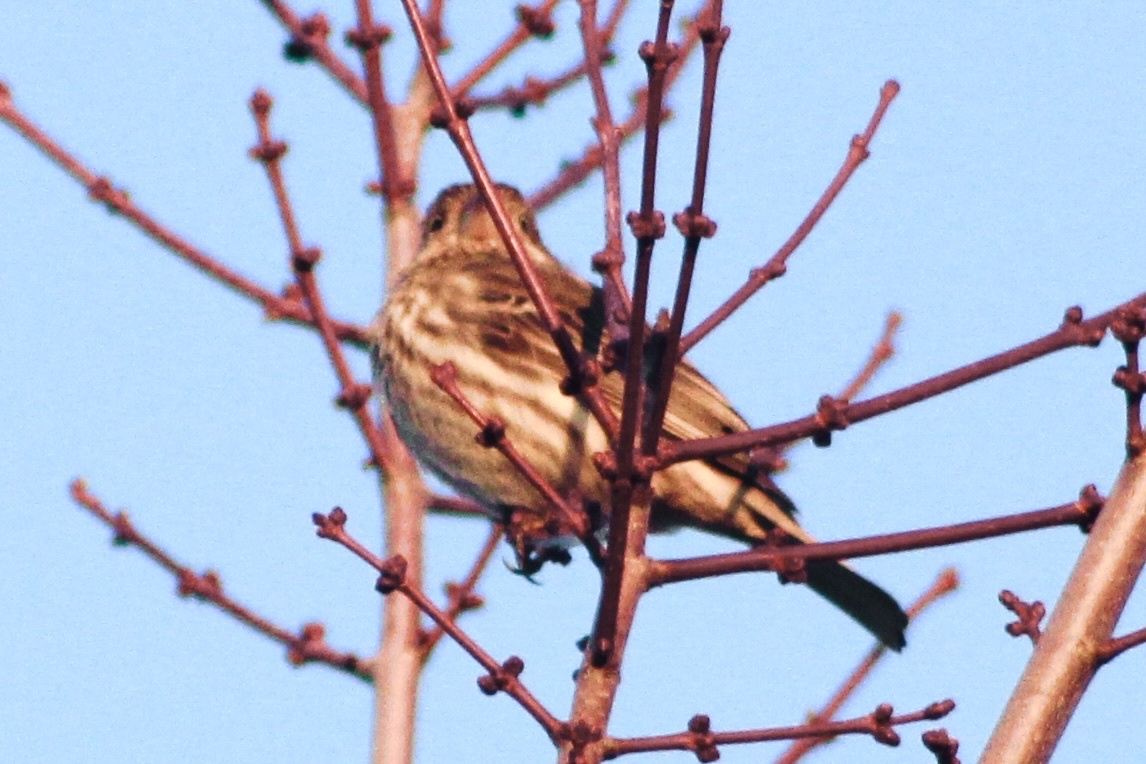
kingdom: Animalia
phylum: Chordata
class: Aves
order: Passeriformes
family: Fringillidae
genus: Haemorhous
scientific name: Haemorhous mexicanus
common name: House finch
